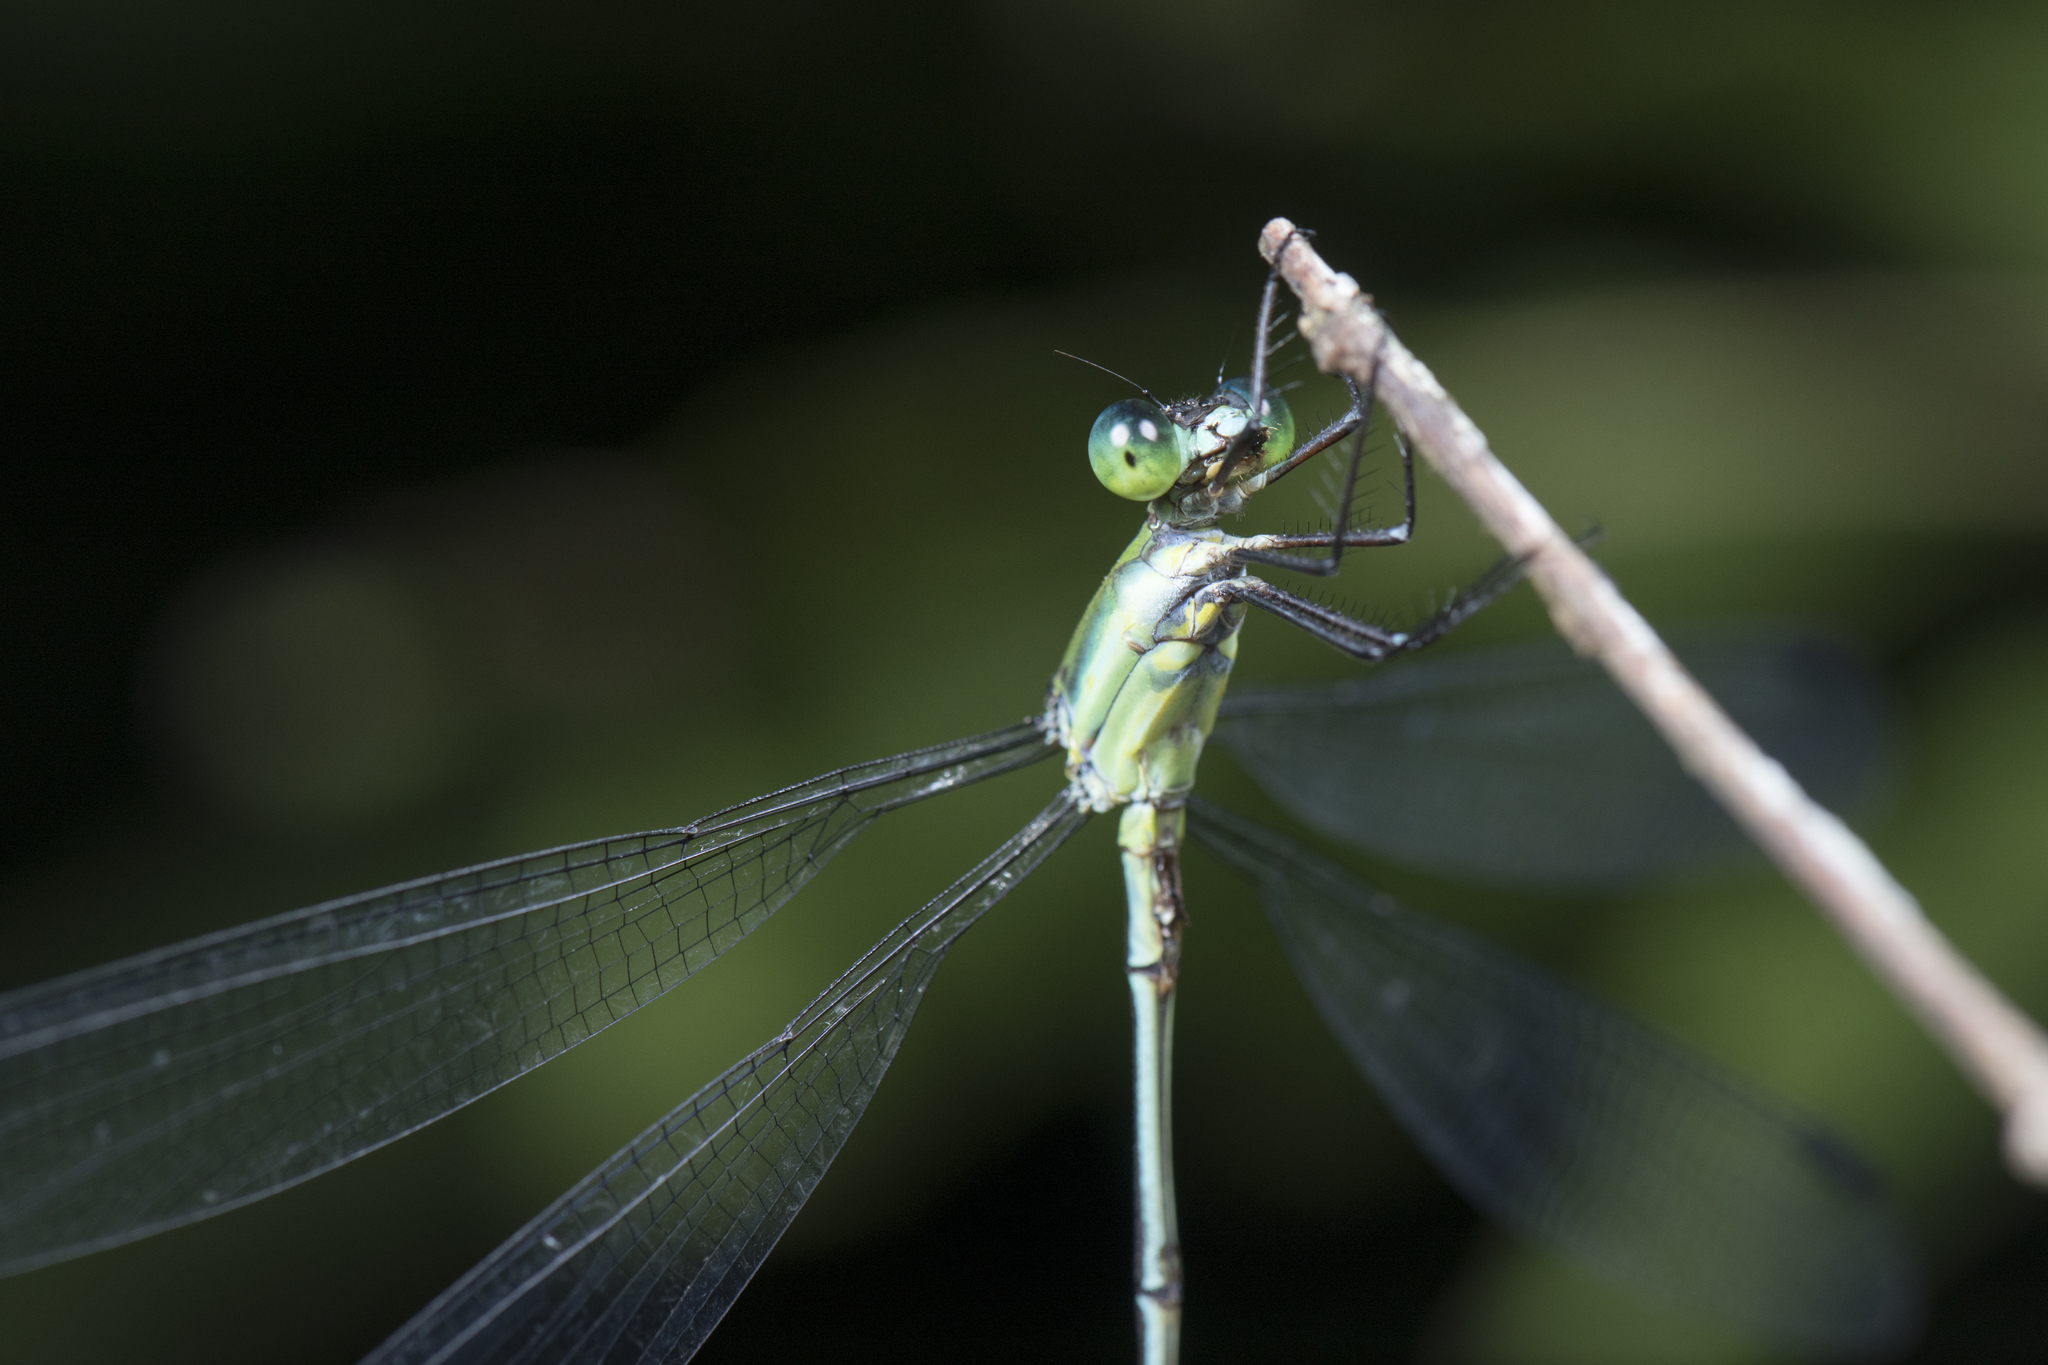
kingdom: Animalia
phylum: Arthropoda
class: Insecta
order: Odonata
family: Lestidae
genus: Orolestes
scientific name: Orolestes selysi
